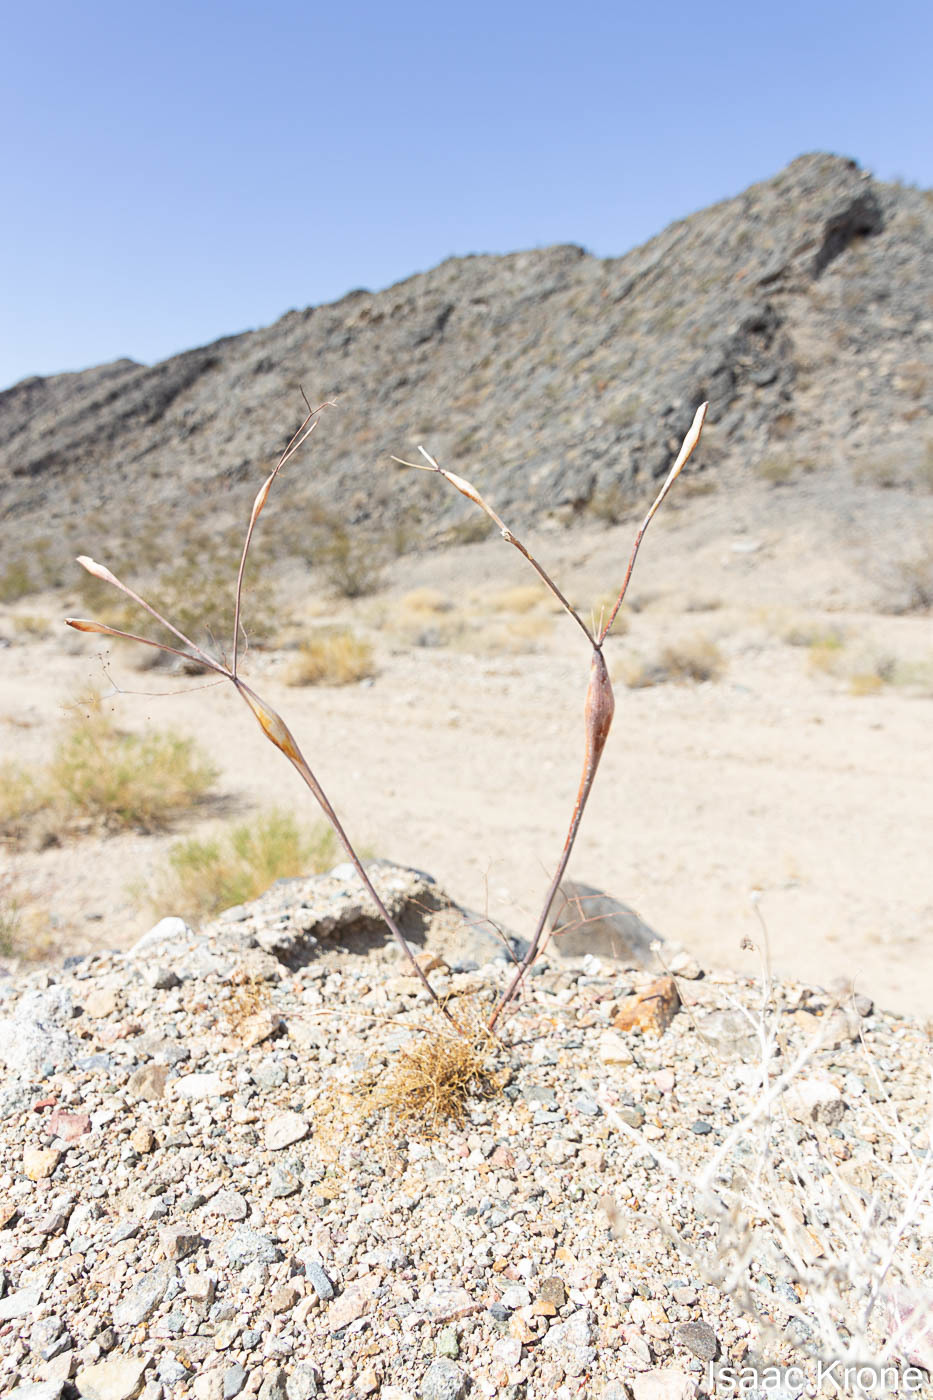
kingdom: Plantae
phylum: Tracheophyta
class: Magnoliopsida
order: Caryophyllales
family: Polygonaceae
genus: Eriogonum
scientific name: Eriogonum inflatum
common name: Desert trumpet
